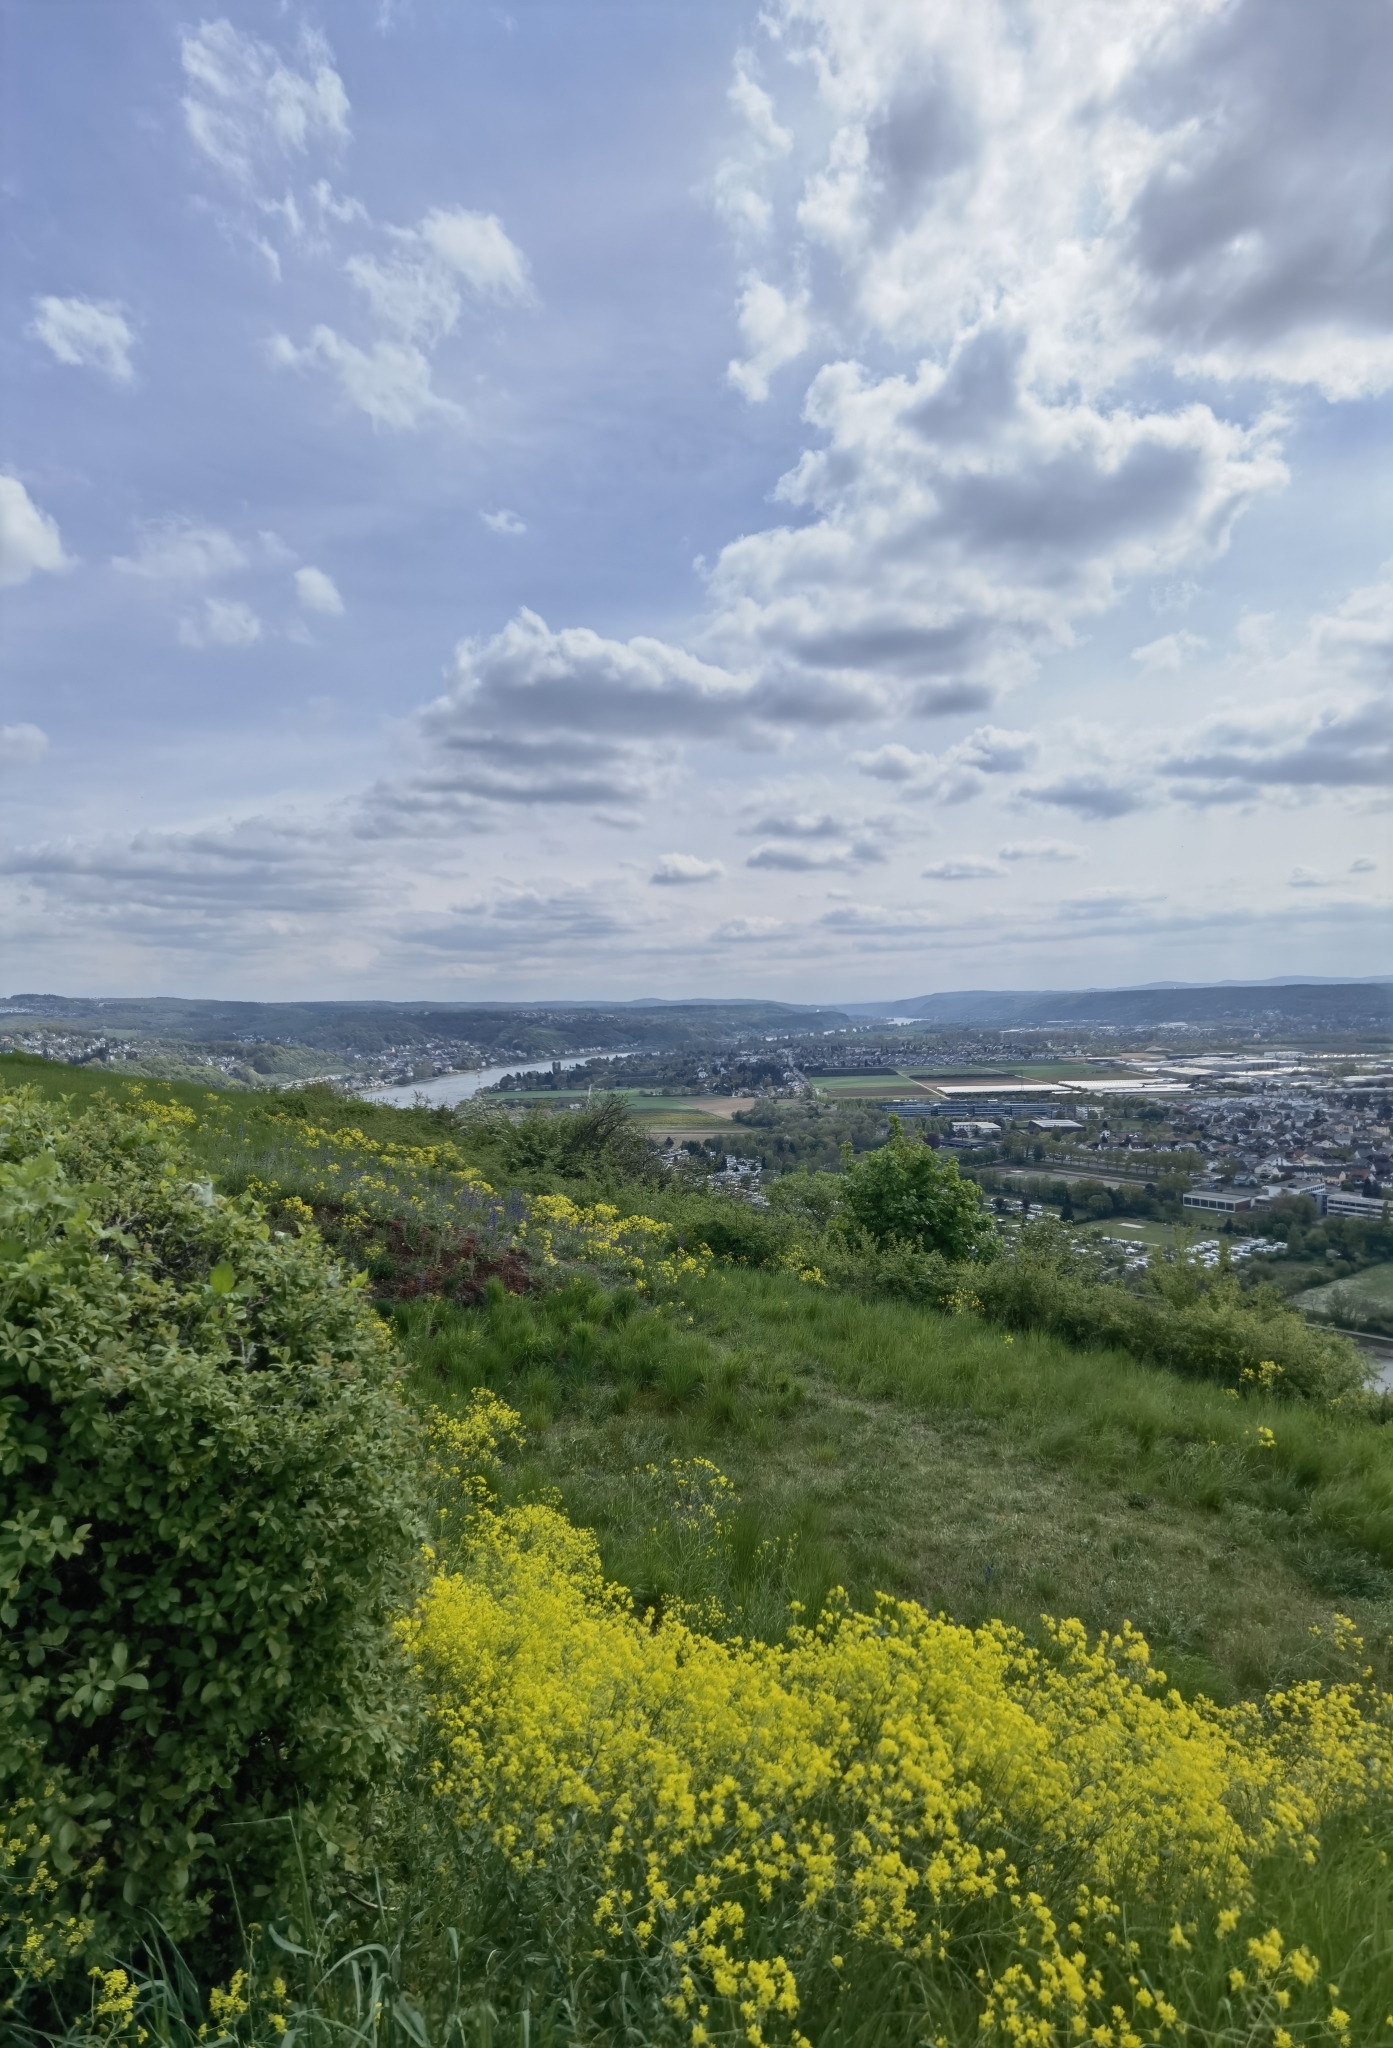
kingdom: Plantae
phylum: Tracheophyta
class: Magnoliopsida
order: Brassicales
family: Brassicaceae
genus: Isatis
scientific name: Isatis tinctoria
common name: Woad
